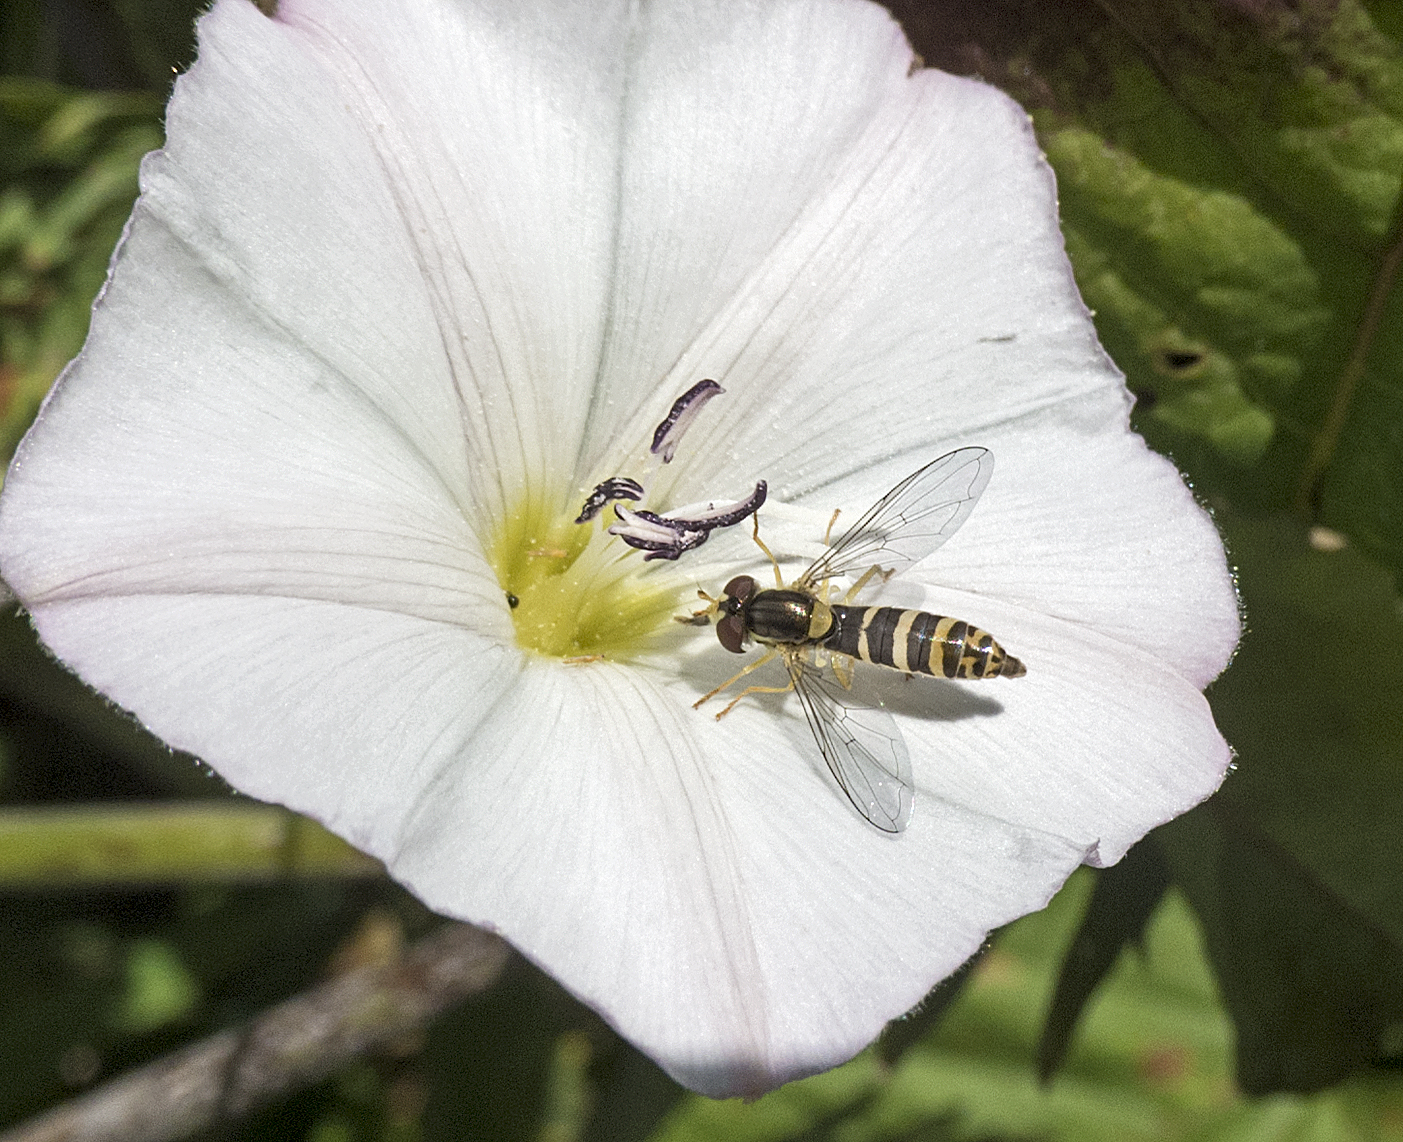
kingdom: Animalia
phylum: Arthropoda
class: Insecta
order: Diptera
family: Syrphidae
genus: Sphaerophoria
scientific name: Sphaerophoria
